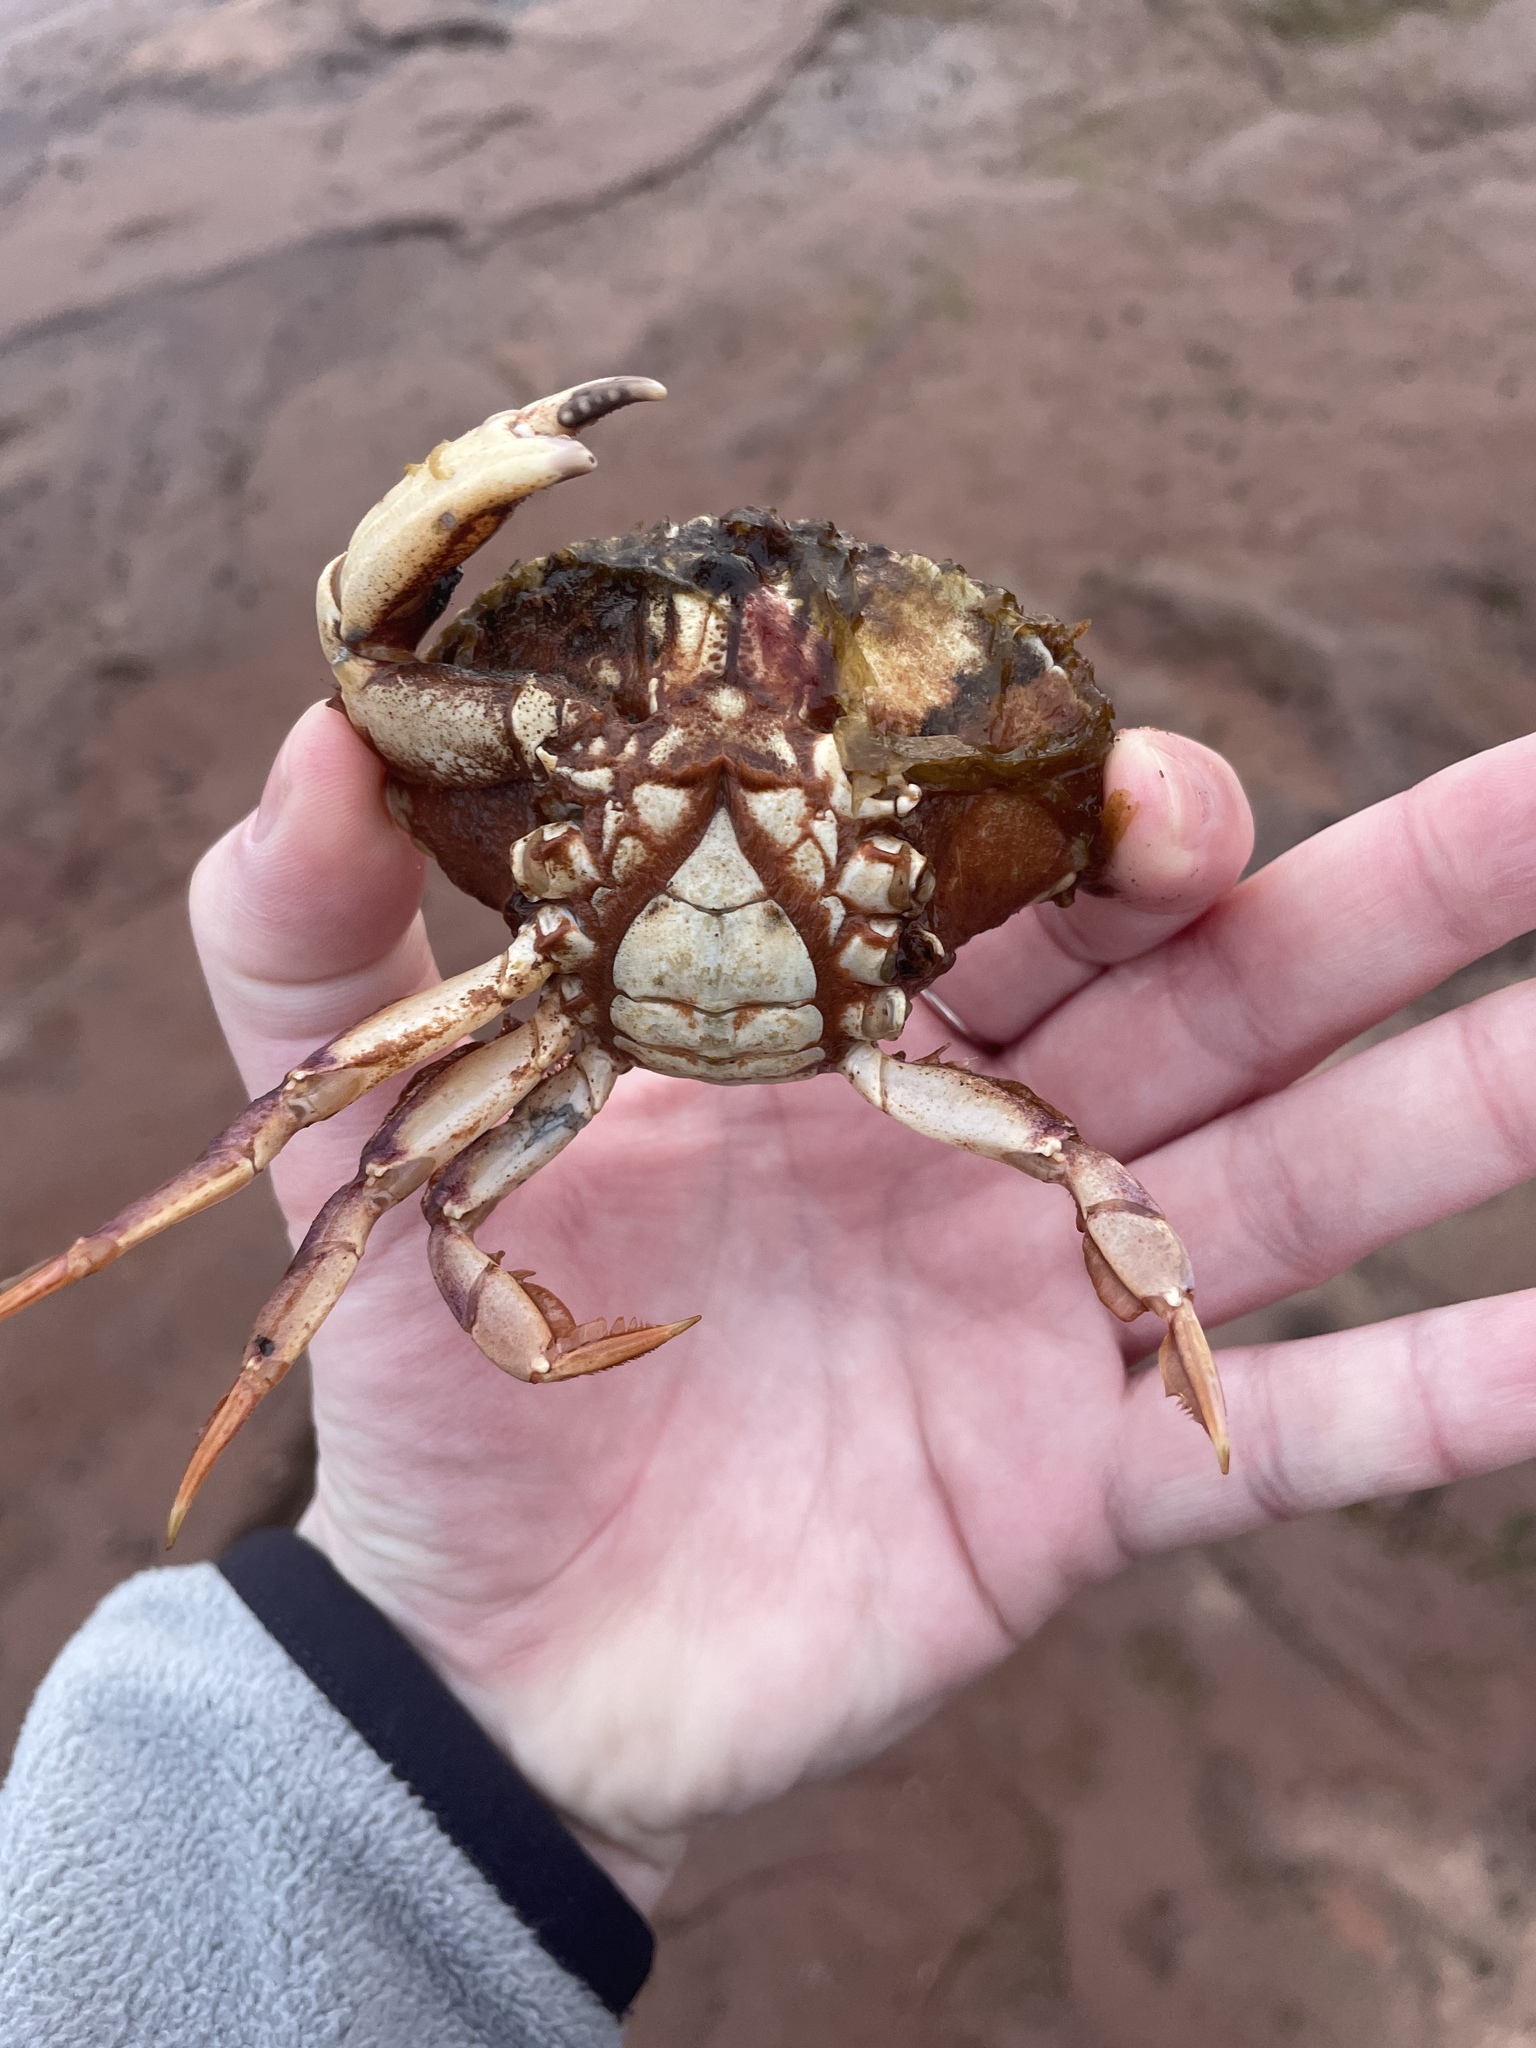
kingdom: Animalia
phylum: Arthropoda
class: Malacostraca
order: Decapoda
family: Cancridae
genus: Cancer
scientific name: Cancer irroratus
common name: Atlantic rock crab
